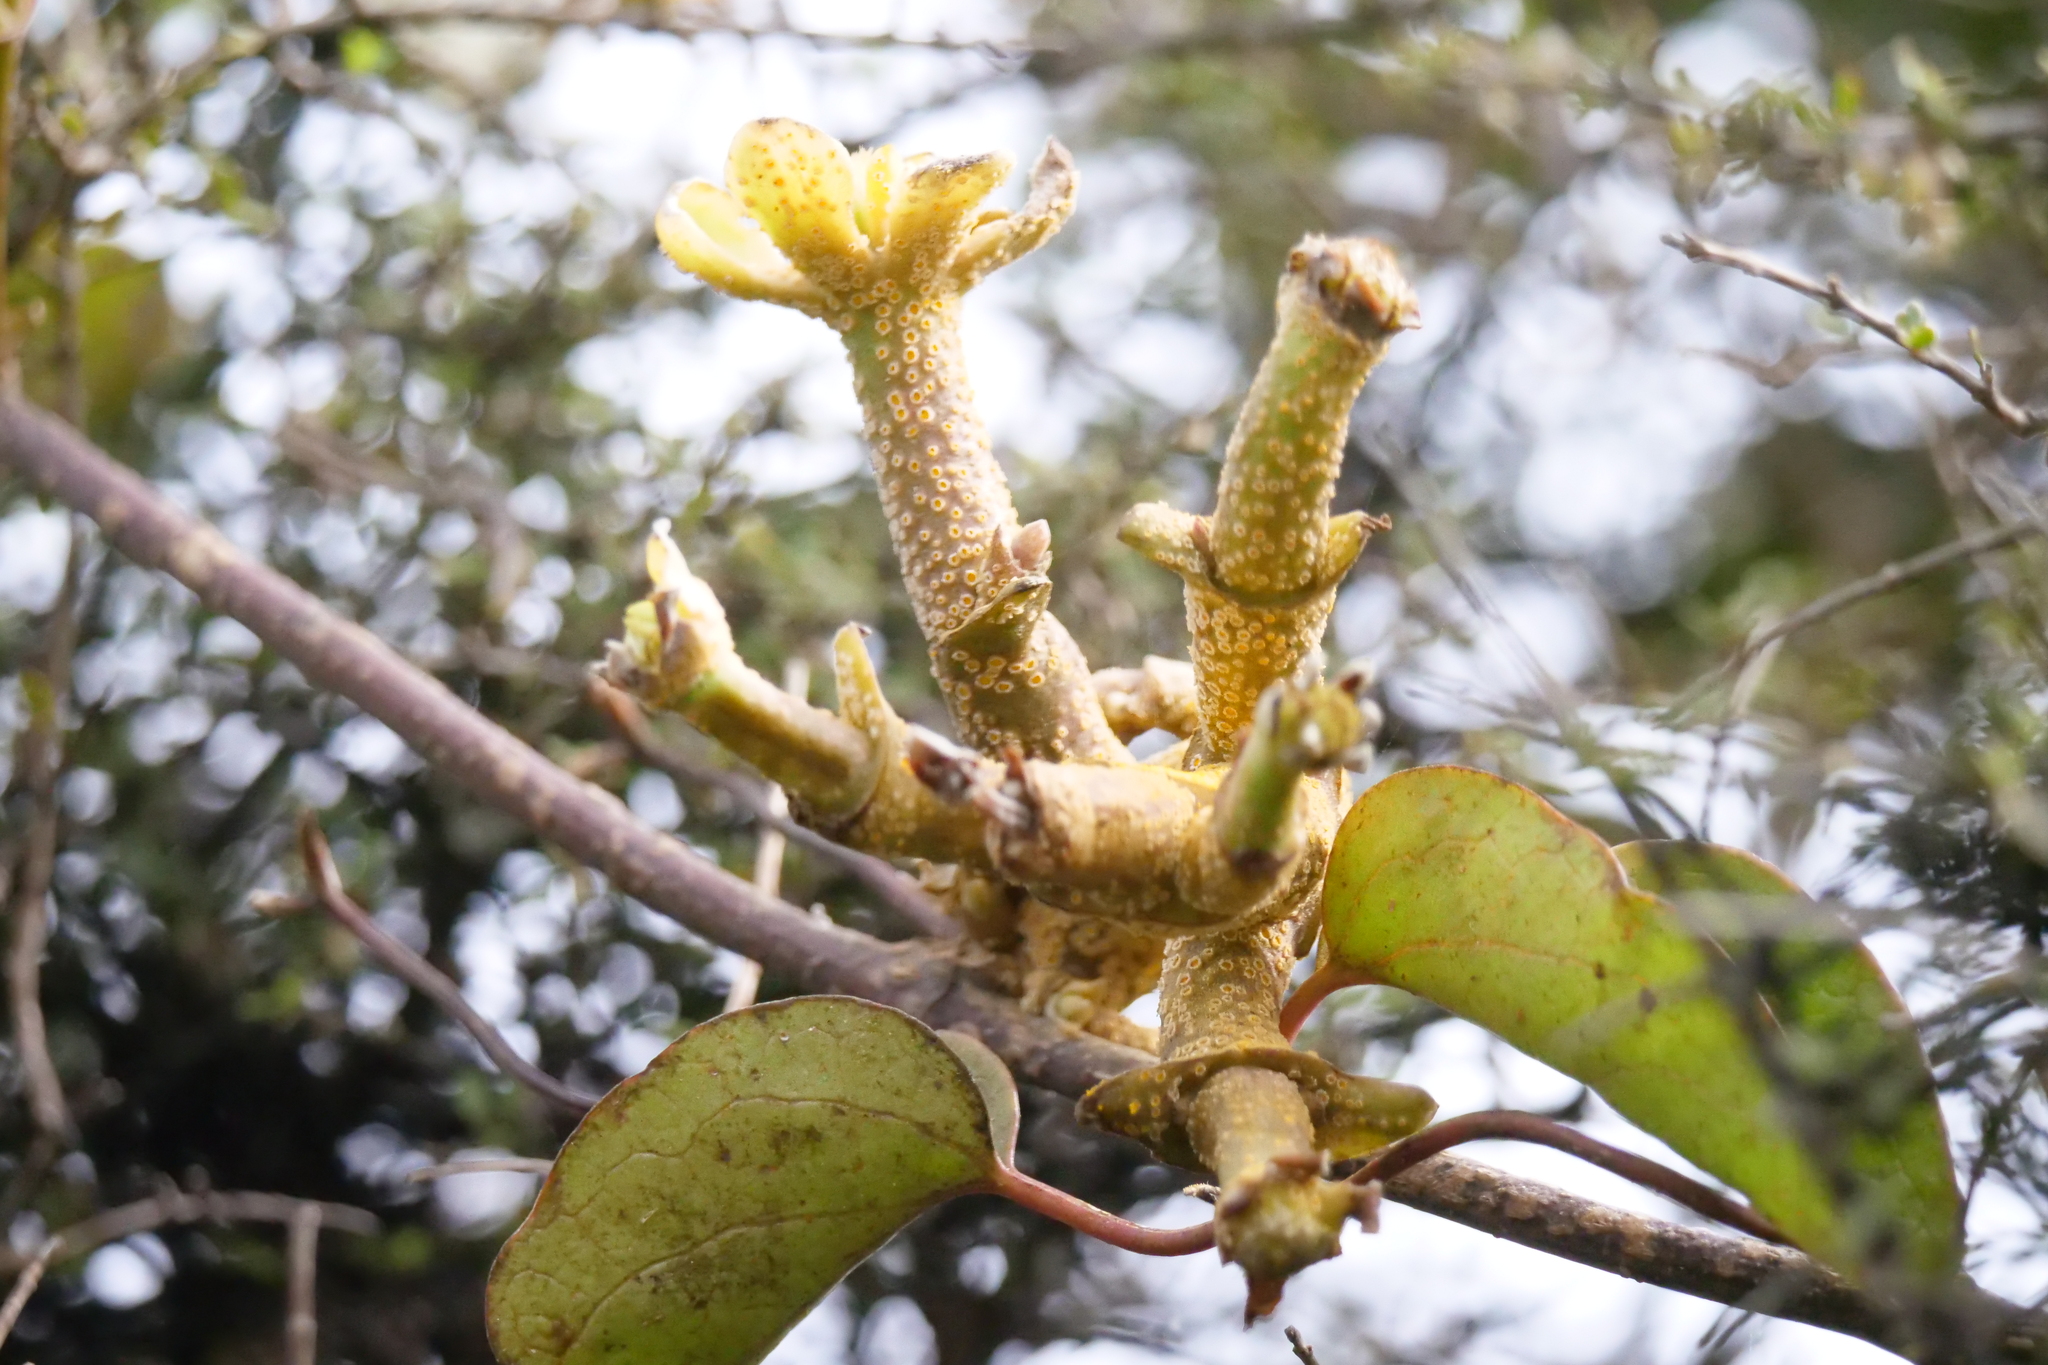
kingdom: Fungi
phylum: Basidiomycota
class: Pucciniomycetes
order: Pucciniales
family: Pucciniaceae
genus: Puccinia
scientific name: Puccinia otagensis
